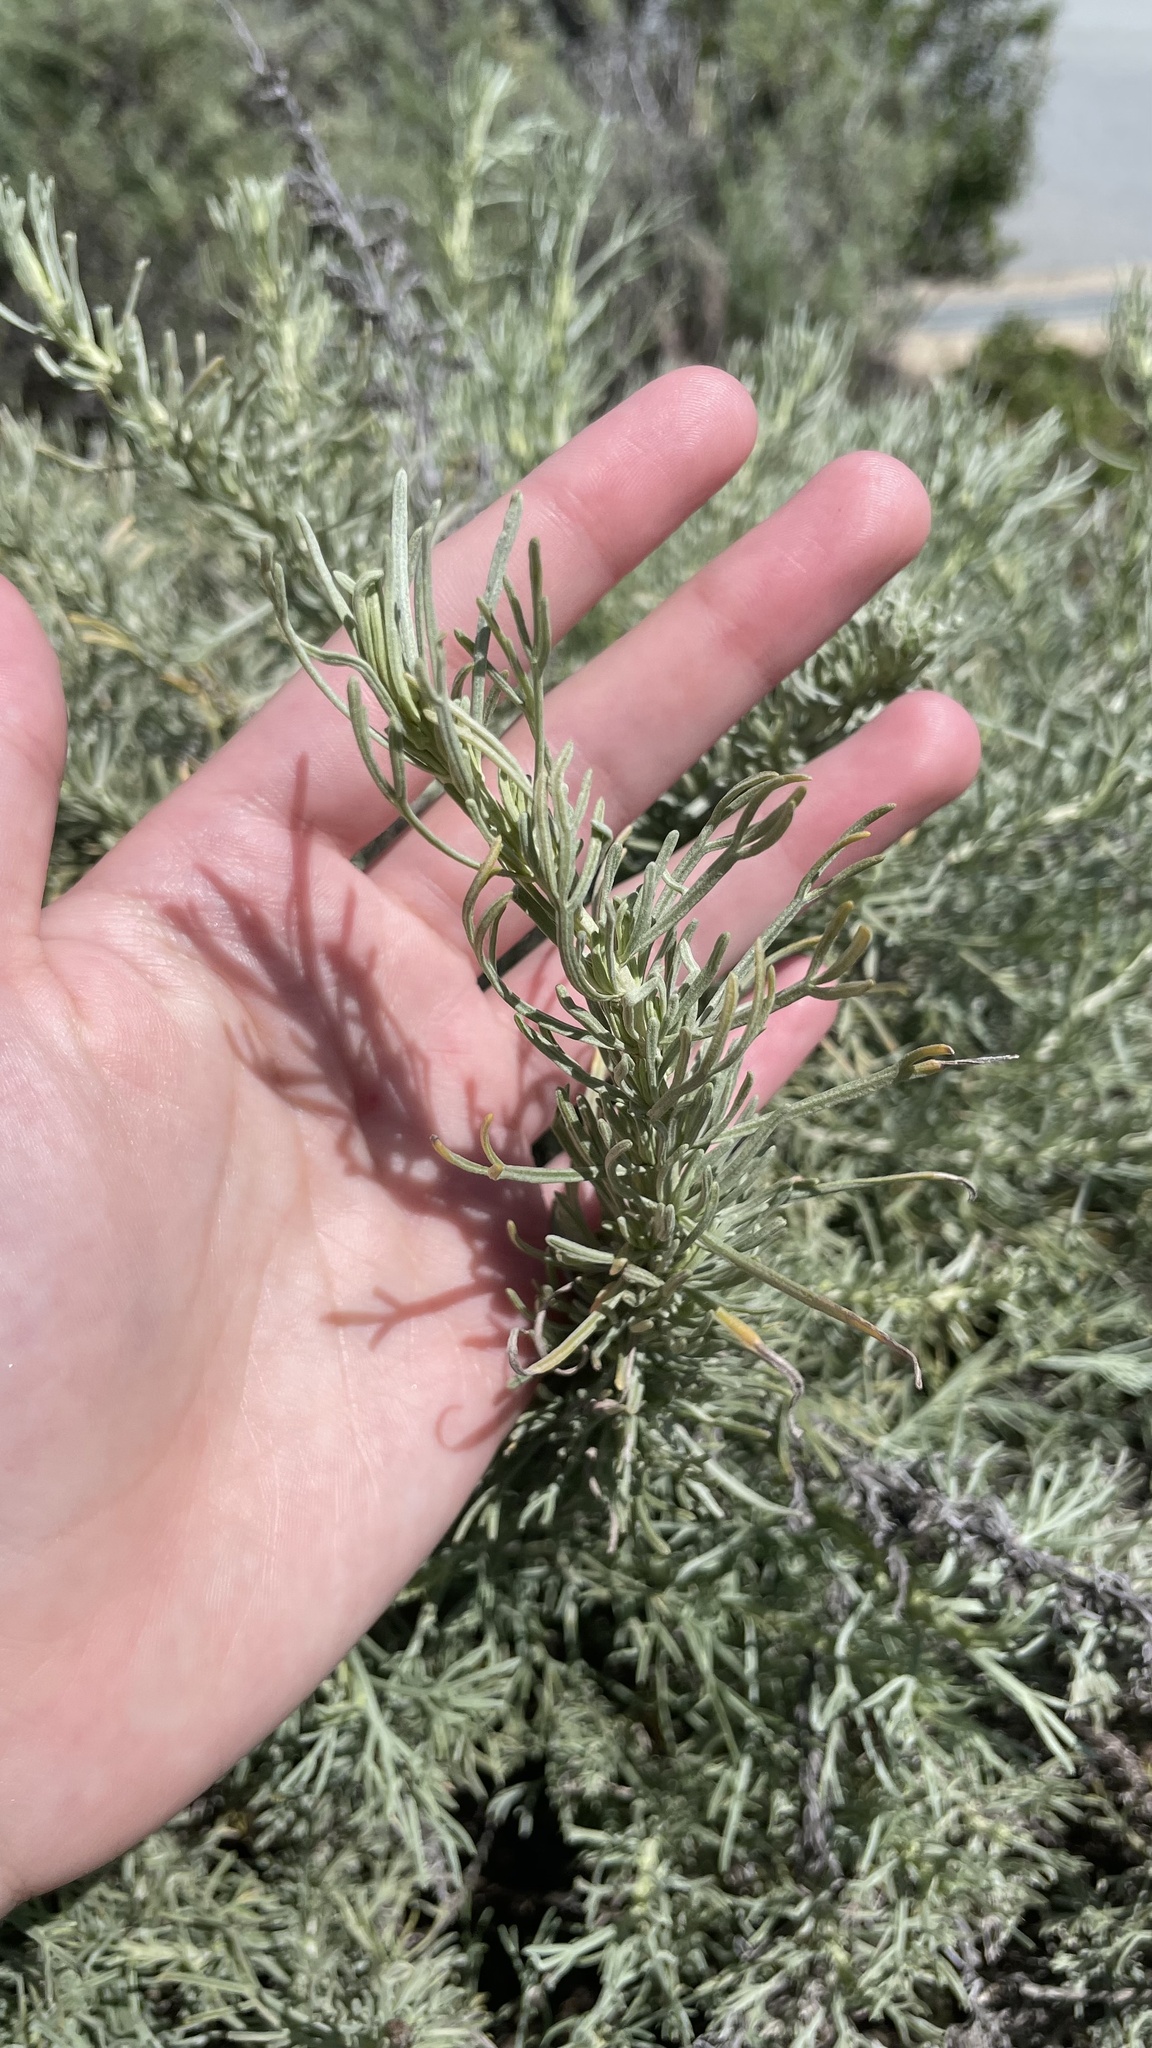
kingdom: Plantae
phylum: Tracheophyta
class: Magnoliopsida
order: Asterales
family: Asteraceae
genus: Artemisia
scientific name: Artemisia californica
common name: California sagebrush
